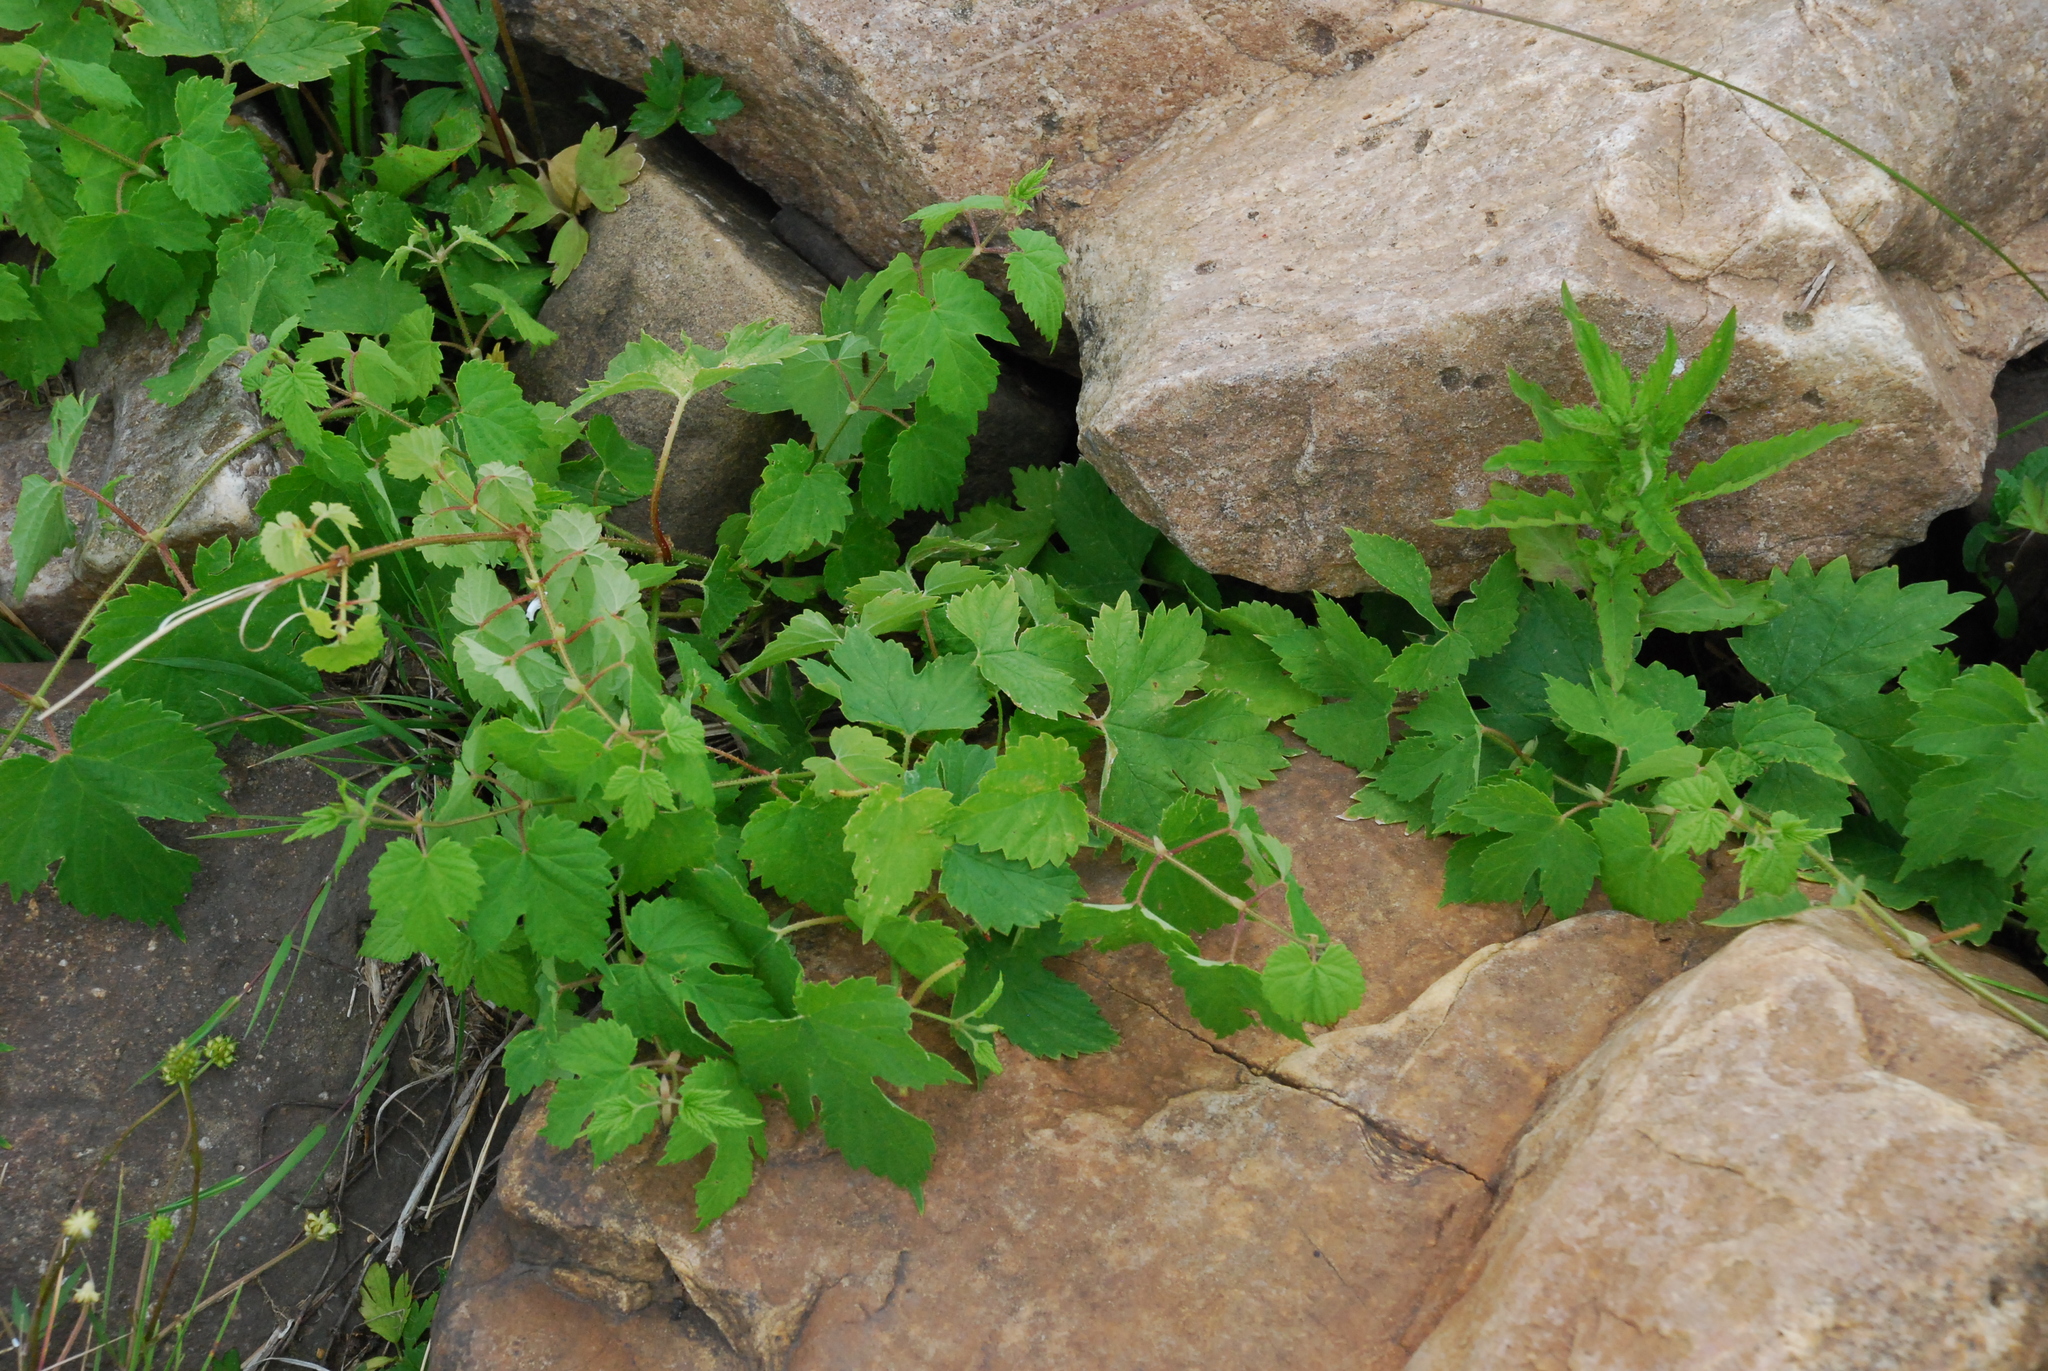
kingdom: Plantae
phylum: Tracheophyta
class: Magnoliopsida
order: Rosales
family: Cannabaceae
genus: Humulus
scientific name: Humulus lupulus
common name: Hop
